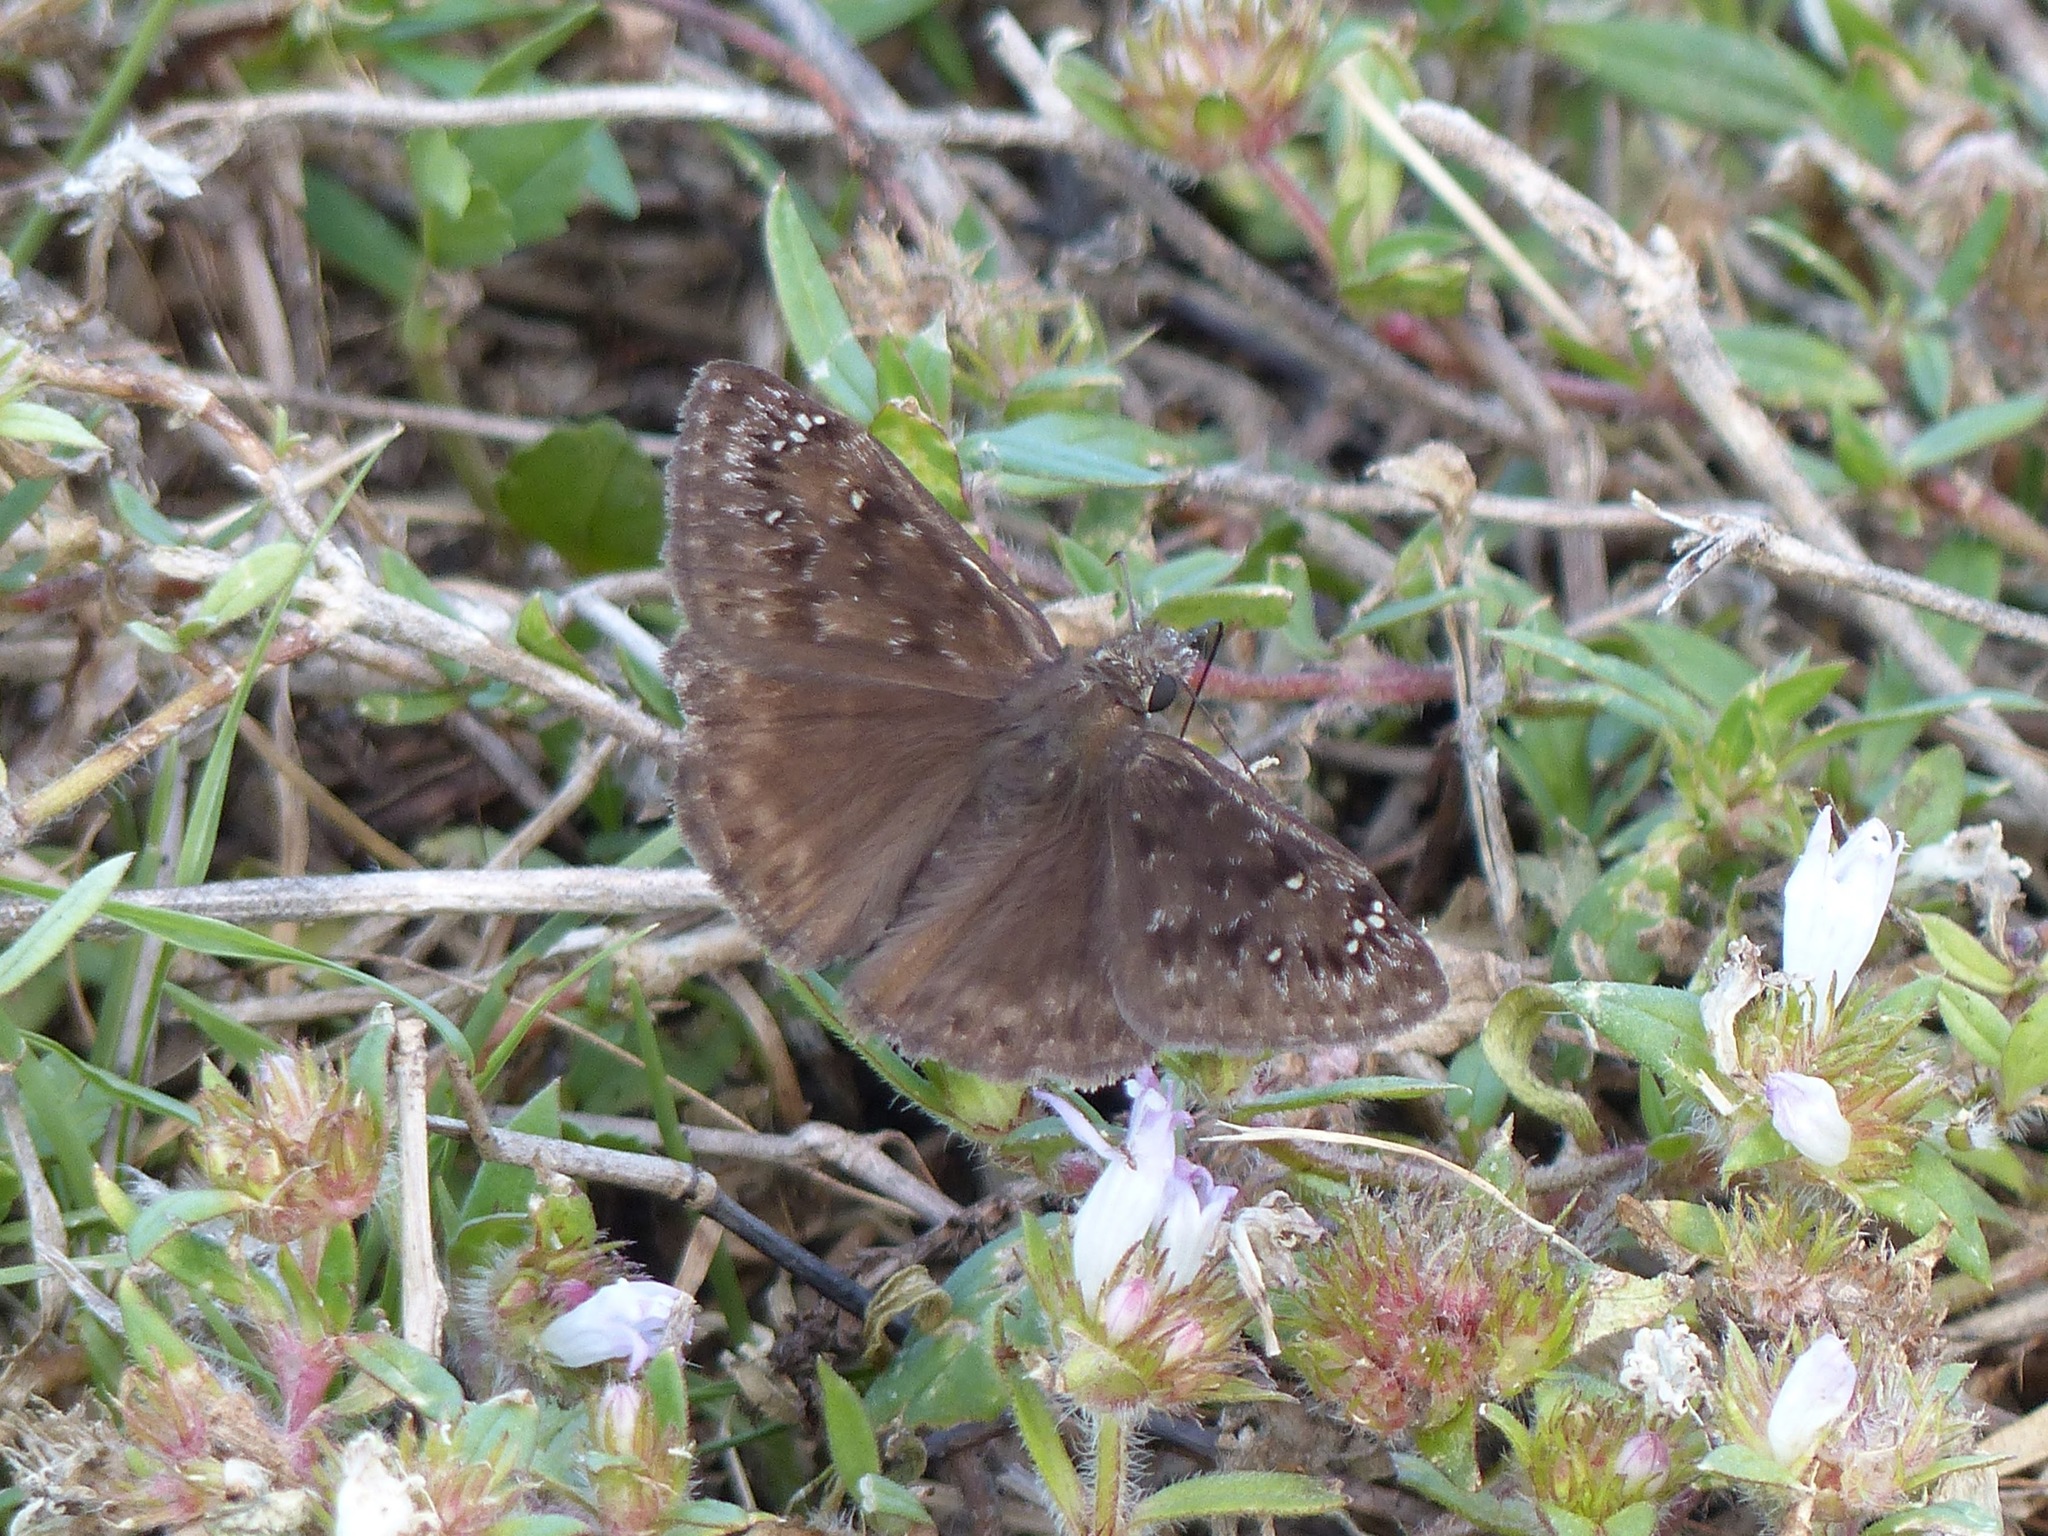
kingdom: Animalia
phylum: Arthropoda
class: Insecta
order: Lepidoptera
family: Hesperiidae
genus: Erynnis
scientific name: Erynnis horatius
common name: Horace's duskywing
